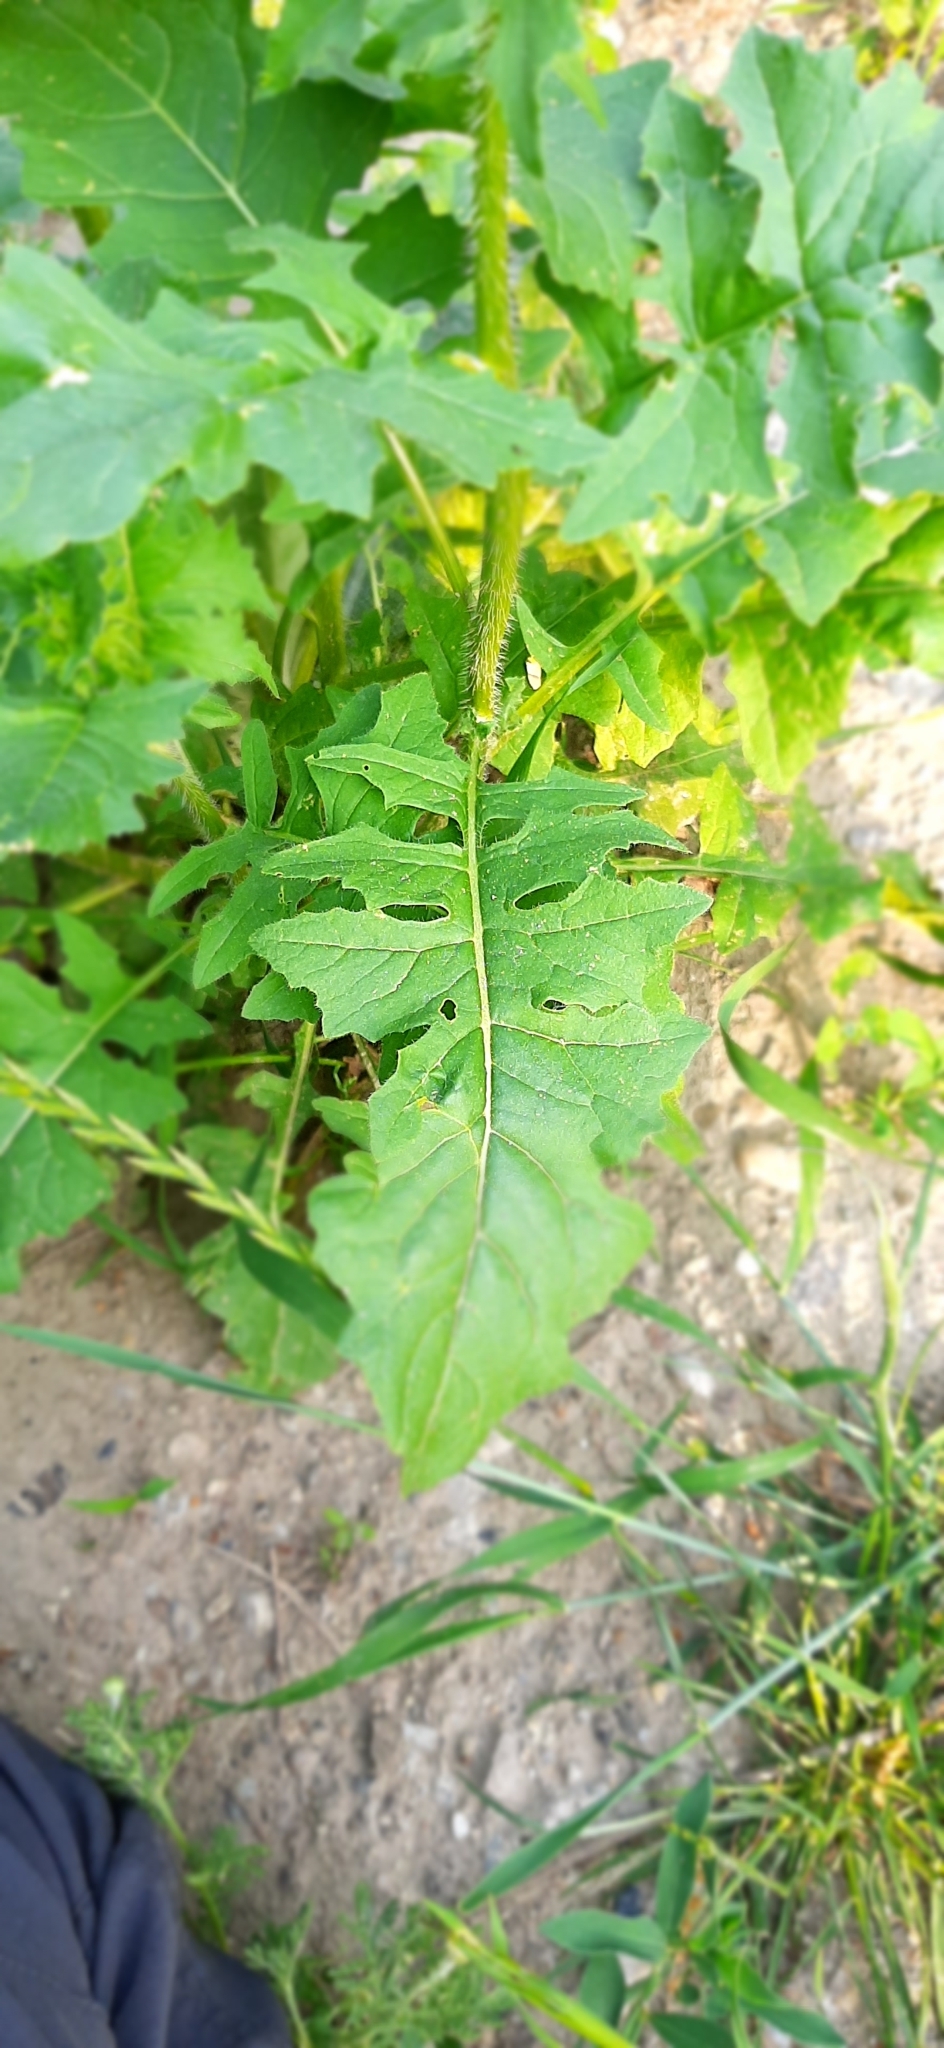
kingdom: Plantae
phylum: Tracheophyta
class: Magnoliopsida
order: Brassicales
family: Brassicaceae
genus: Sisymbrium
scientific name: Sisymbrium loeselii
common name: False london-rocket
